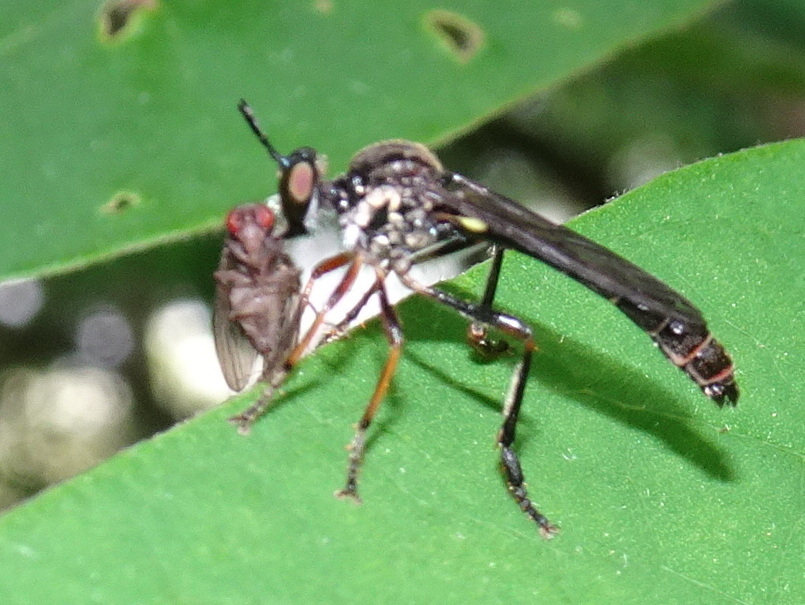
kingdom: Animalia
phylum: Arthropoda
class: Insecta
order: Diptera
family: Asilidae
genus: Dioctria
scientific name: Dioctria hyalipennis
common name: Stripe-legged robberfly
